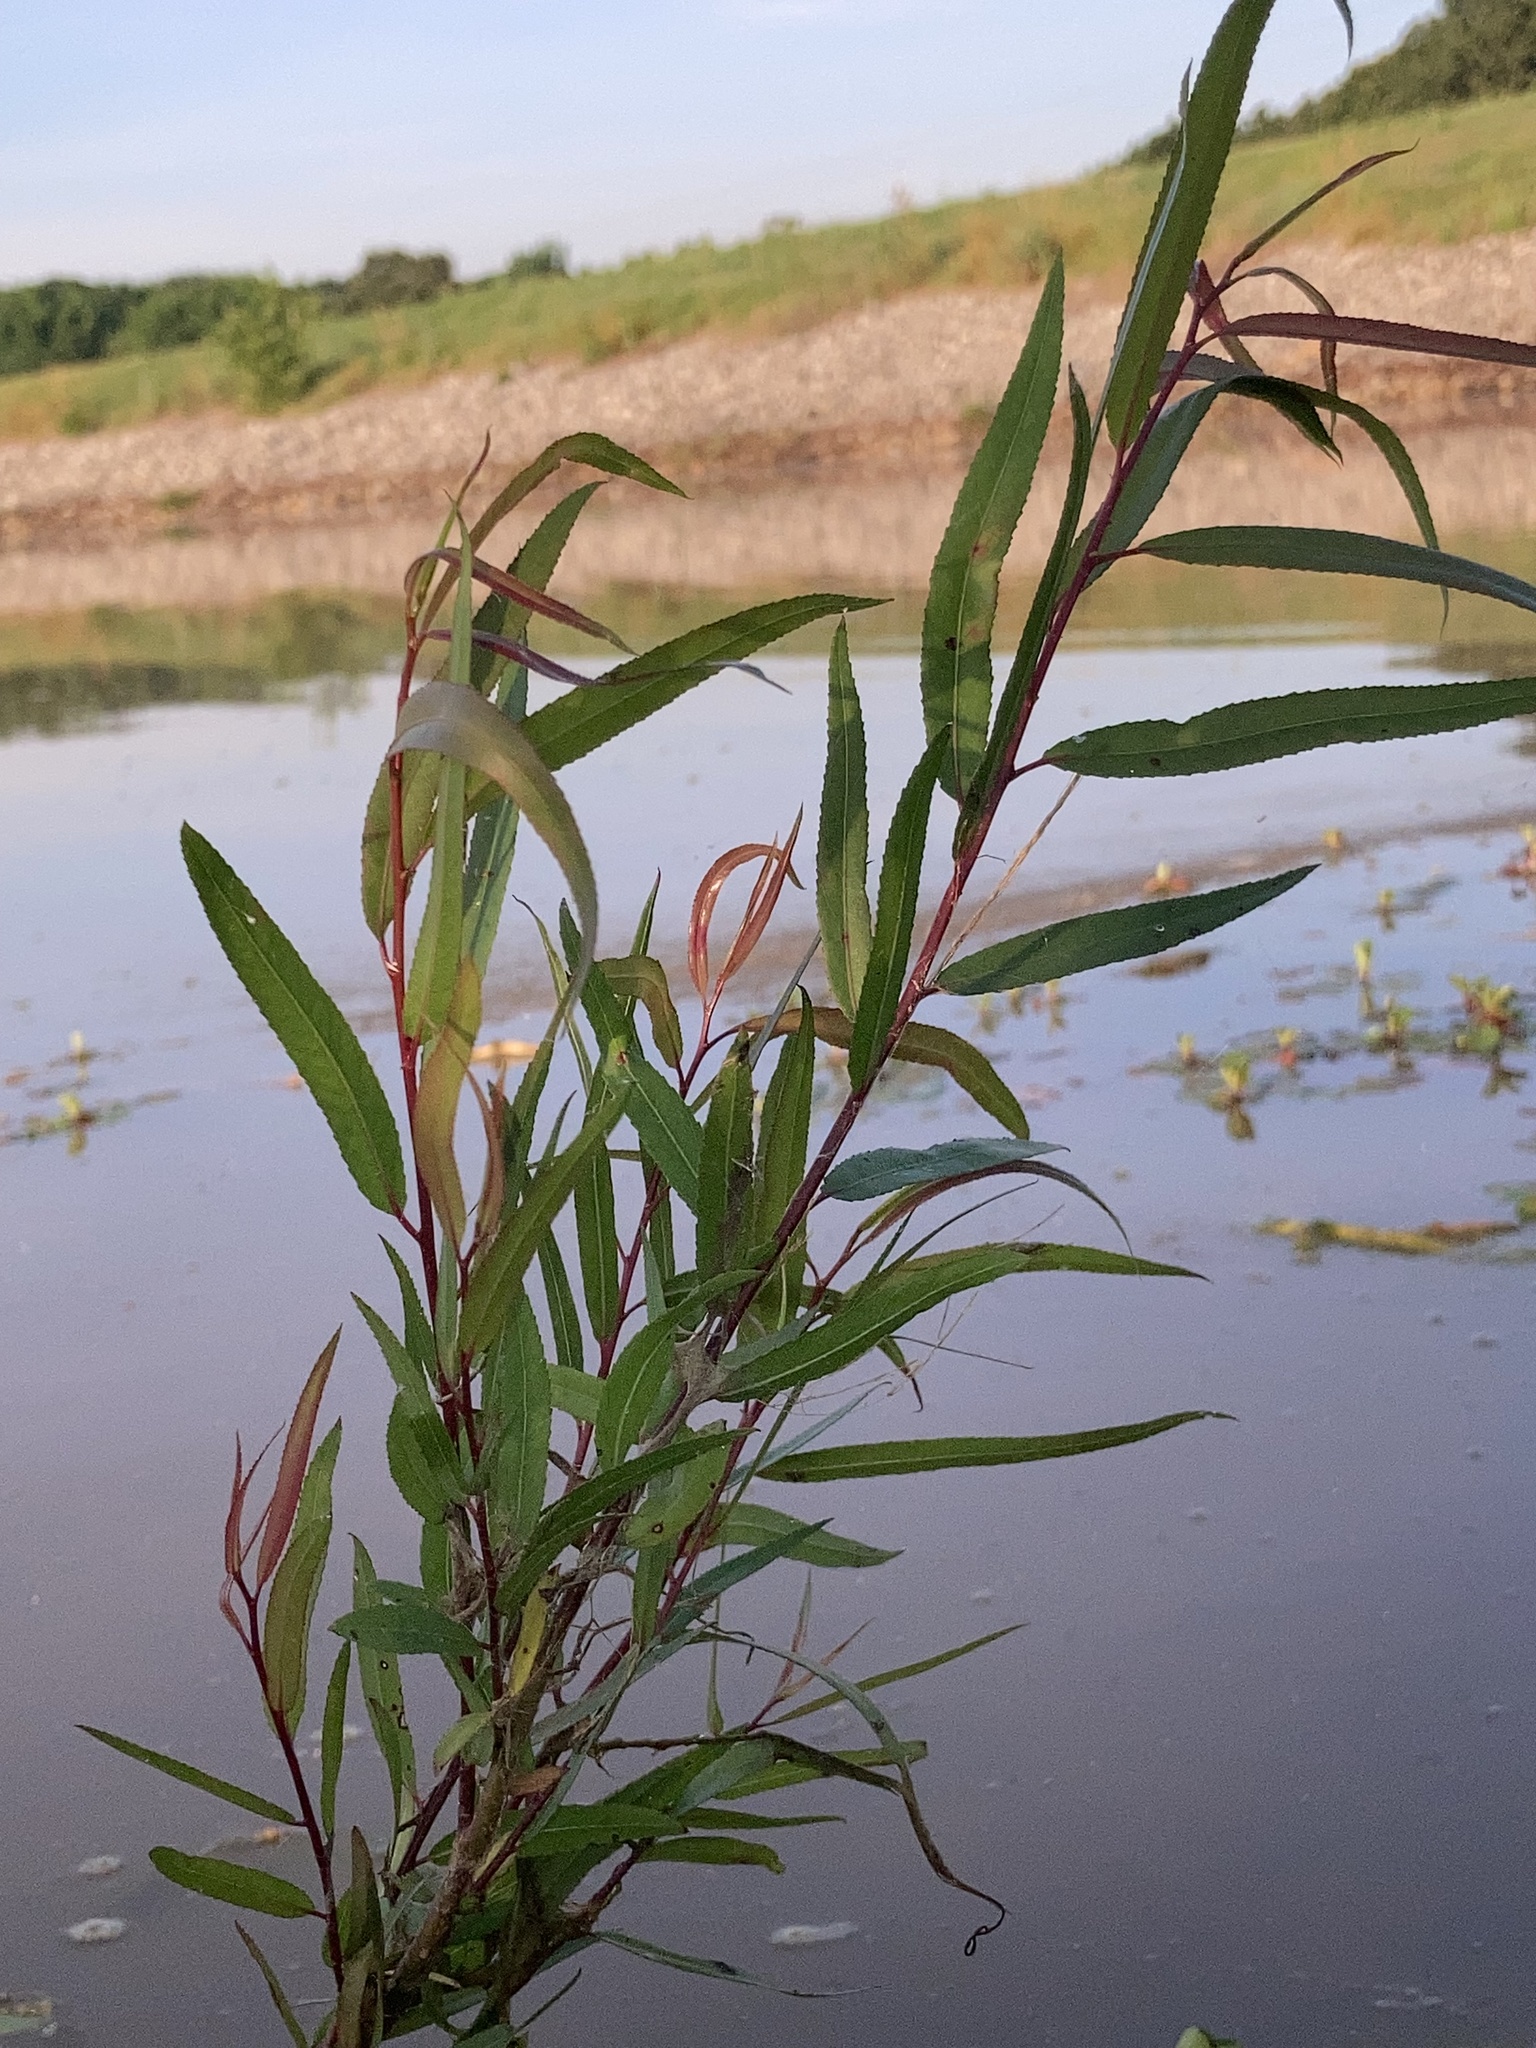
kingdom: Plantae
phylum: Tracheophyta
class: Magnoliopsida
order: Malpighiales
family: Salicaceae
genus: Salix
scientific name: Salix nigra
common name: Black willow
